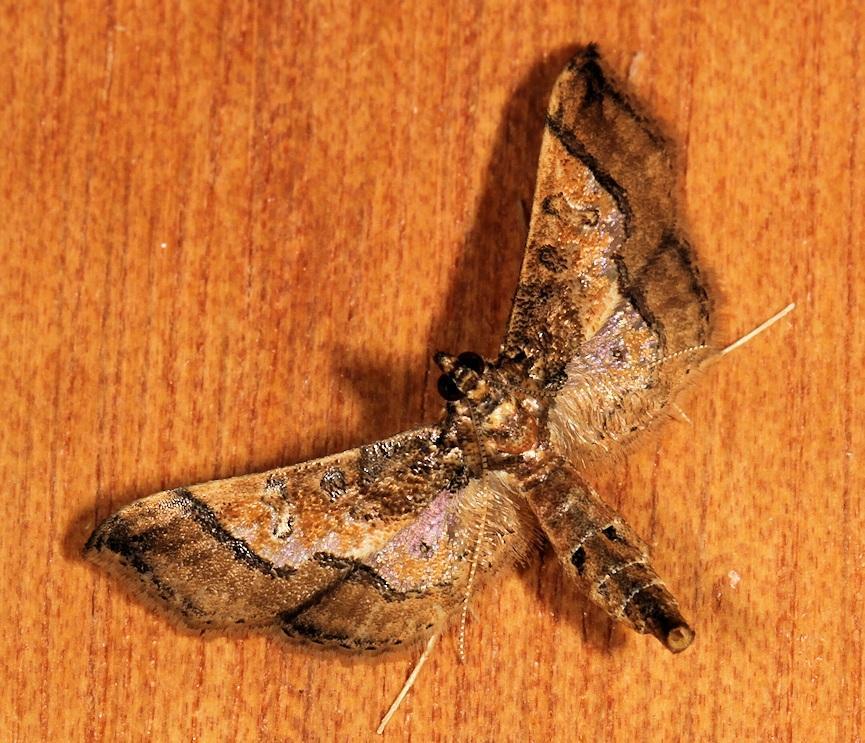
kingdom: Animalia
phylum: Arthropoda
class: Insecta
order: Lepidoptera
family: Crambidae
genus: Hydriris
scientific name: Hydriris ornatalis
